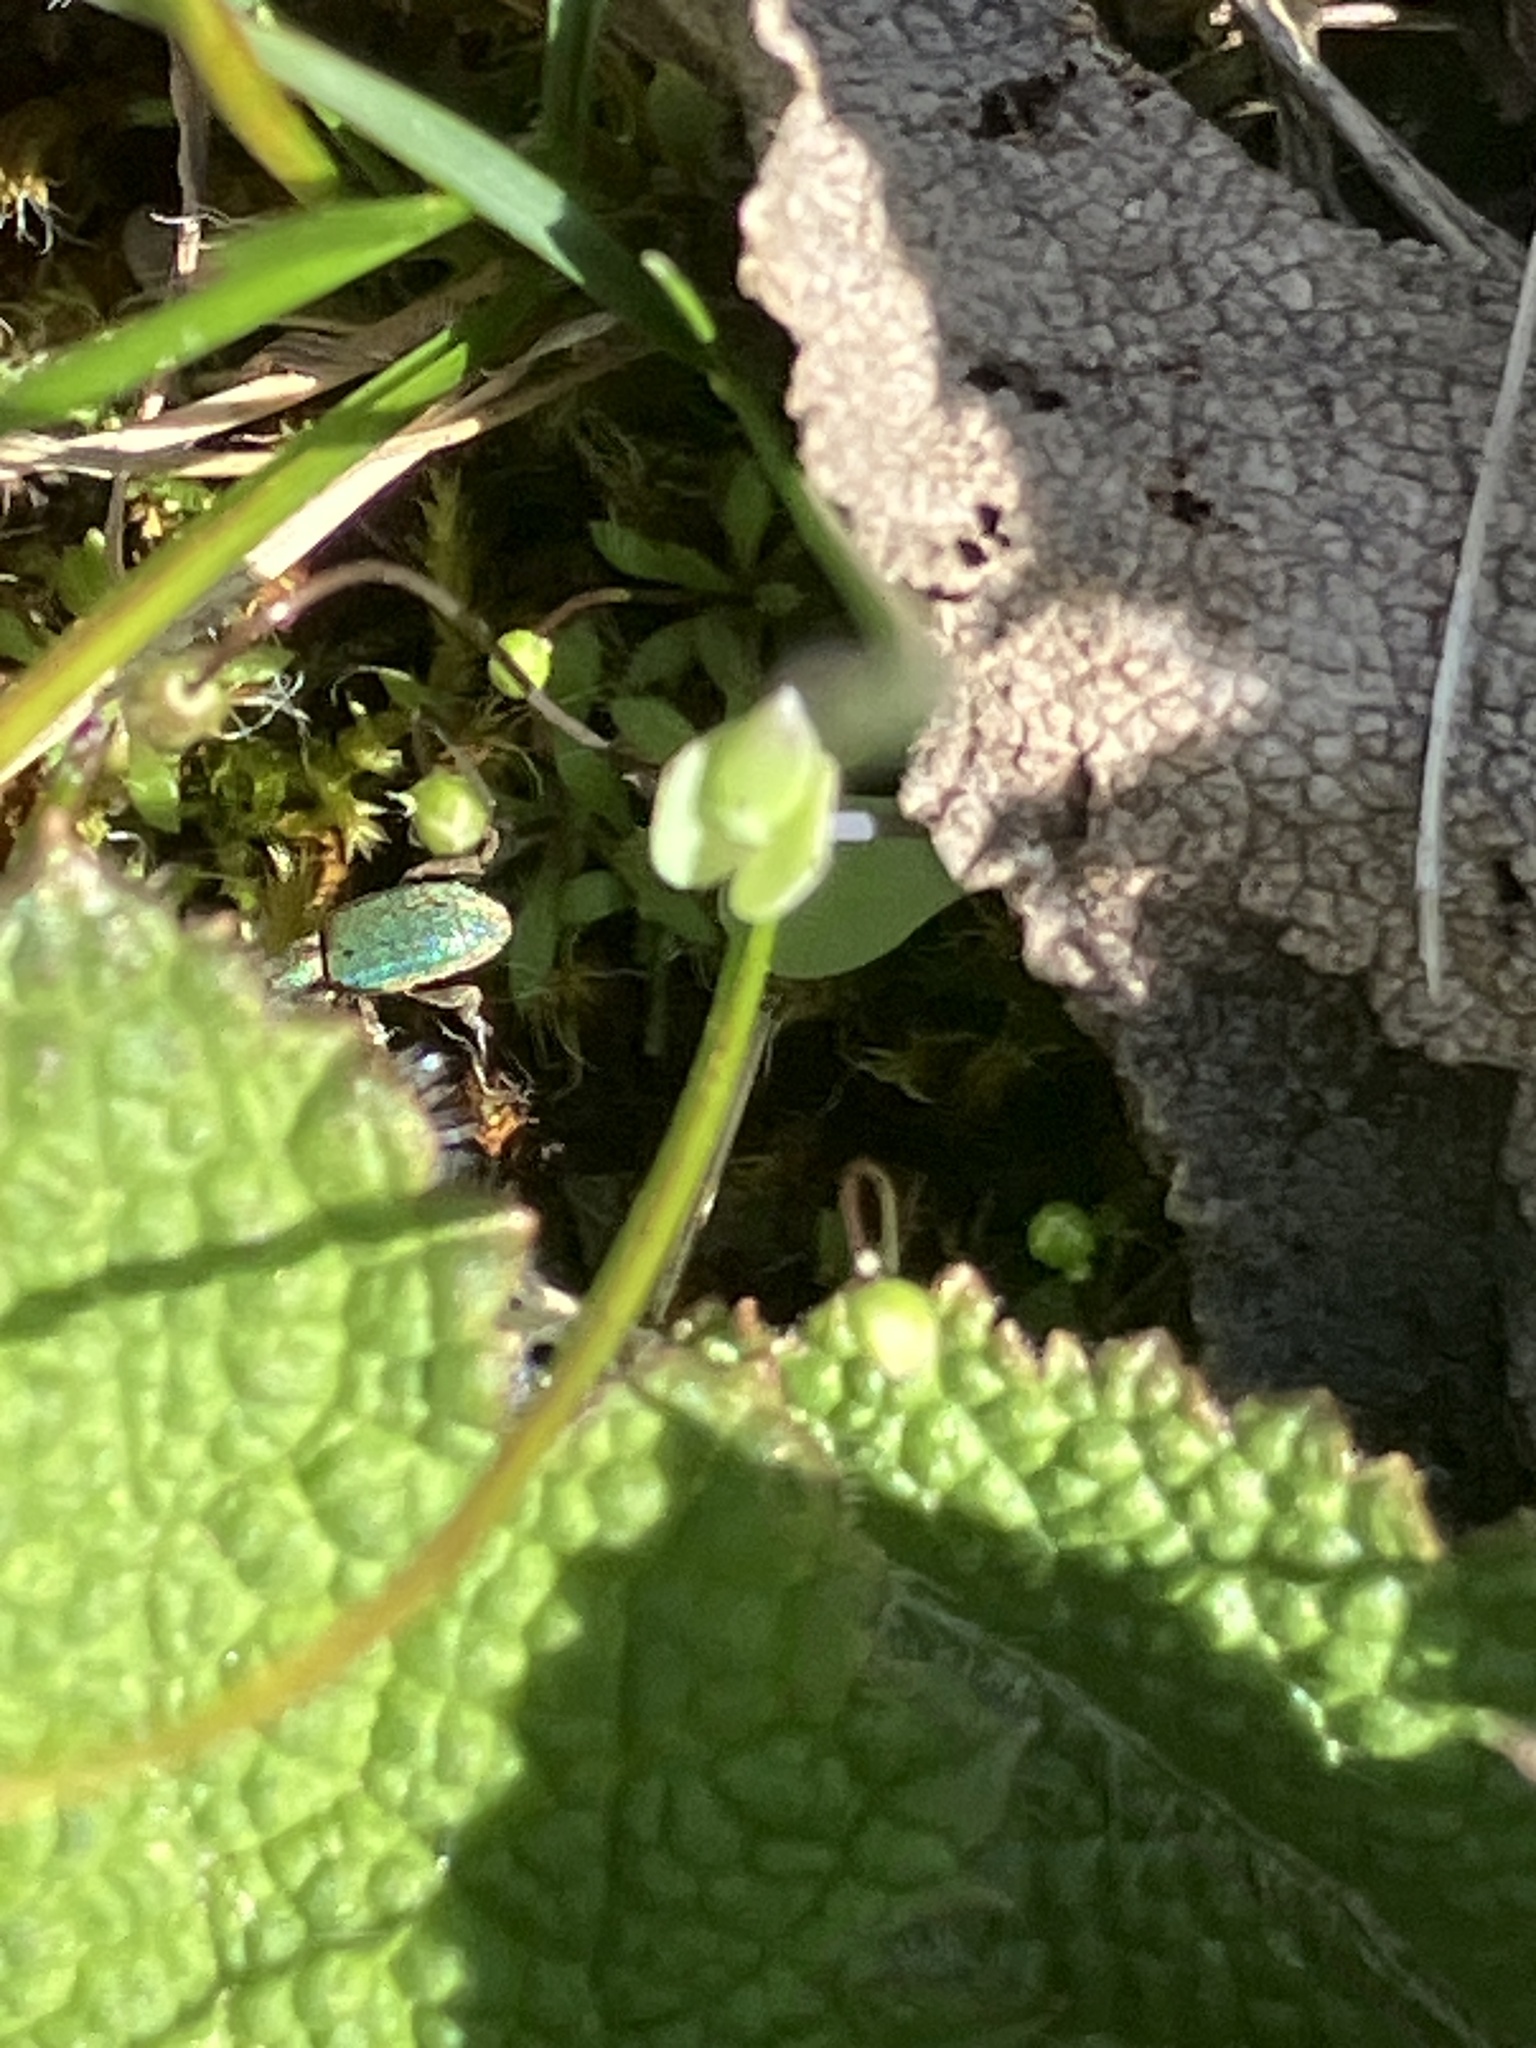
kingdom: Animalia
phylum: Arthropoda
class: Insecta
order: Coleoptera
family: Curculionidae
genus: Hypera
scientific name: Hypera nigrirostris
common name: Black-beaked green weevil
